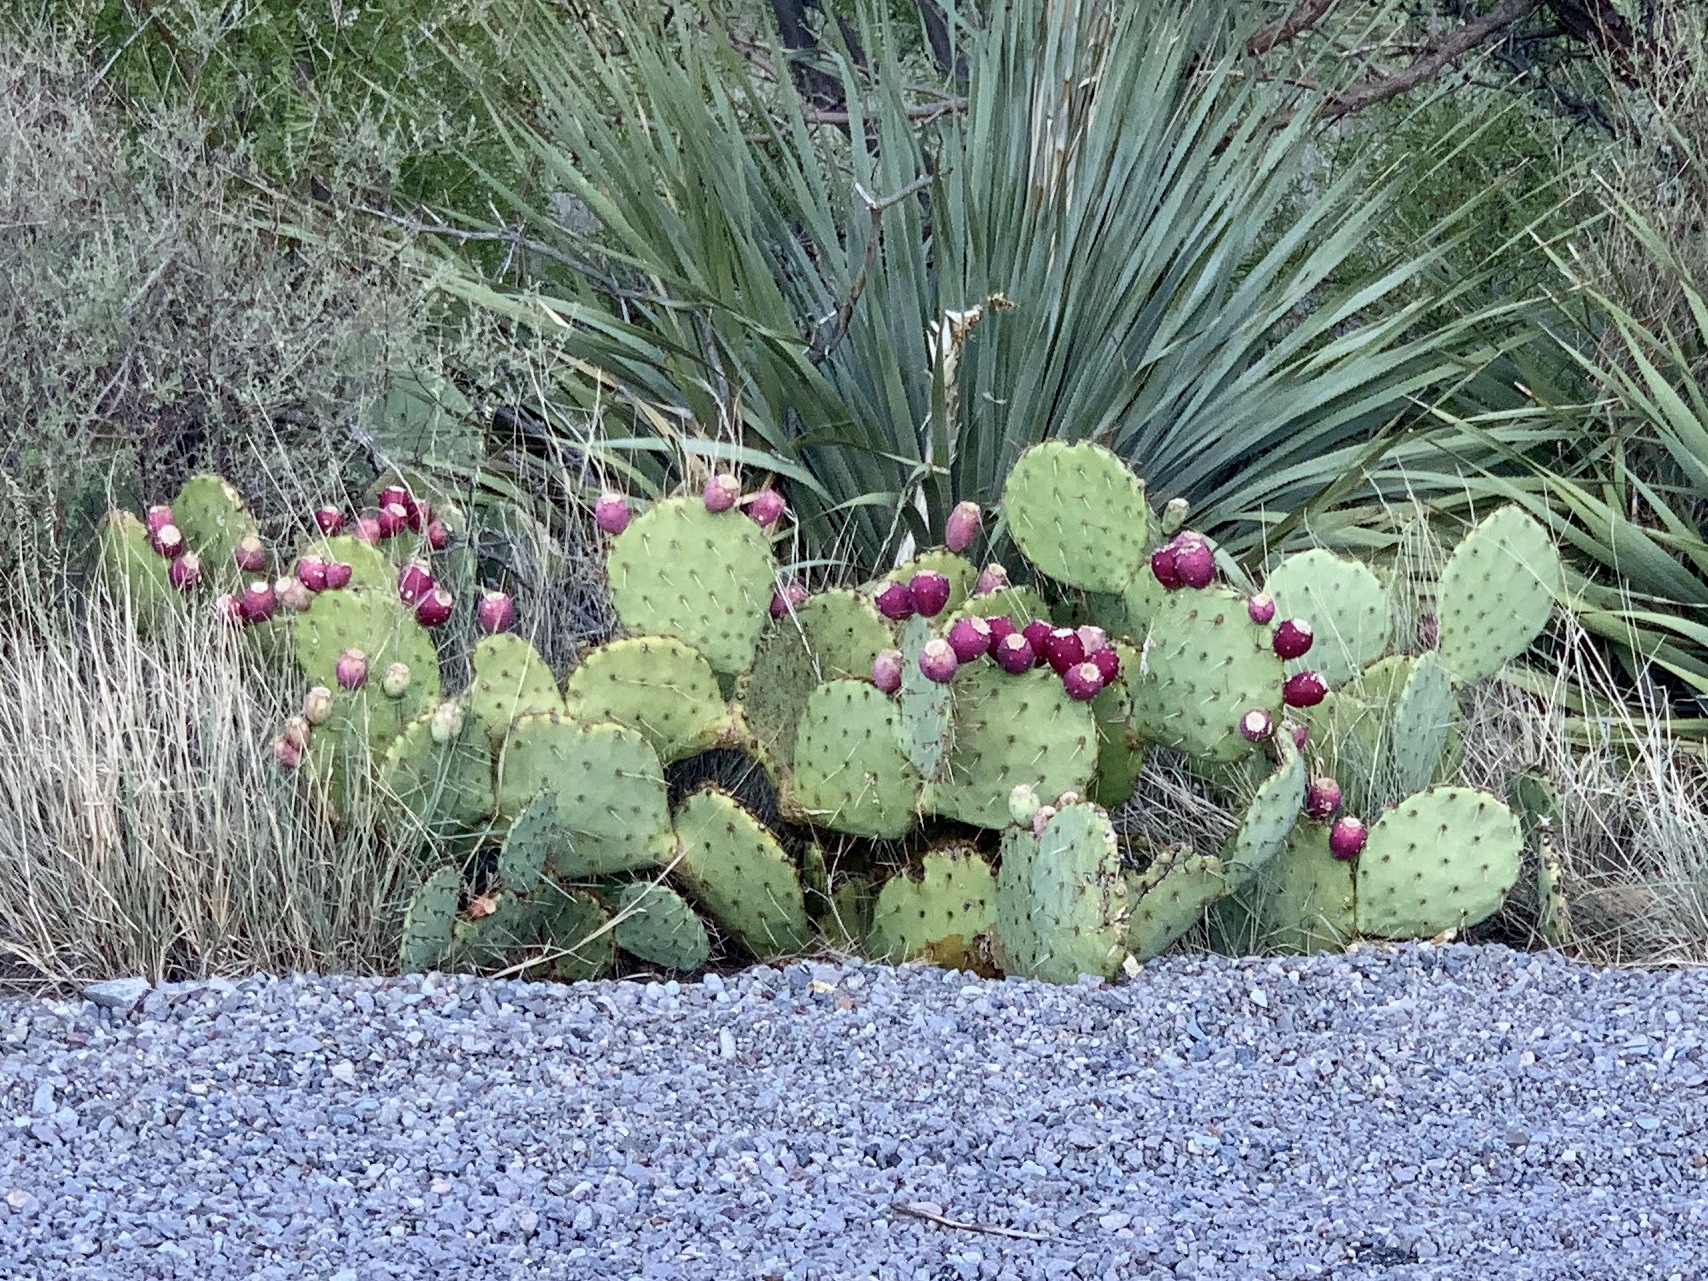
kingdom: Plantae
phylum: Tracheophyta
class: Magnoliopsida
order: Caryophyllales
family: Cactaceae
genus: Opuntia
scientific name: Opuntia engelmannii
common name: Cactus-apple
